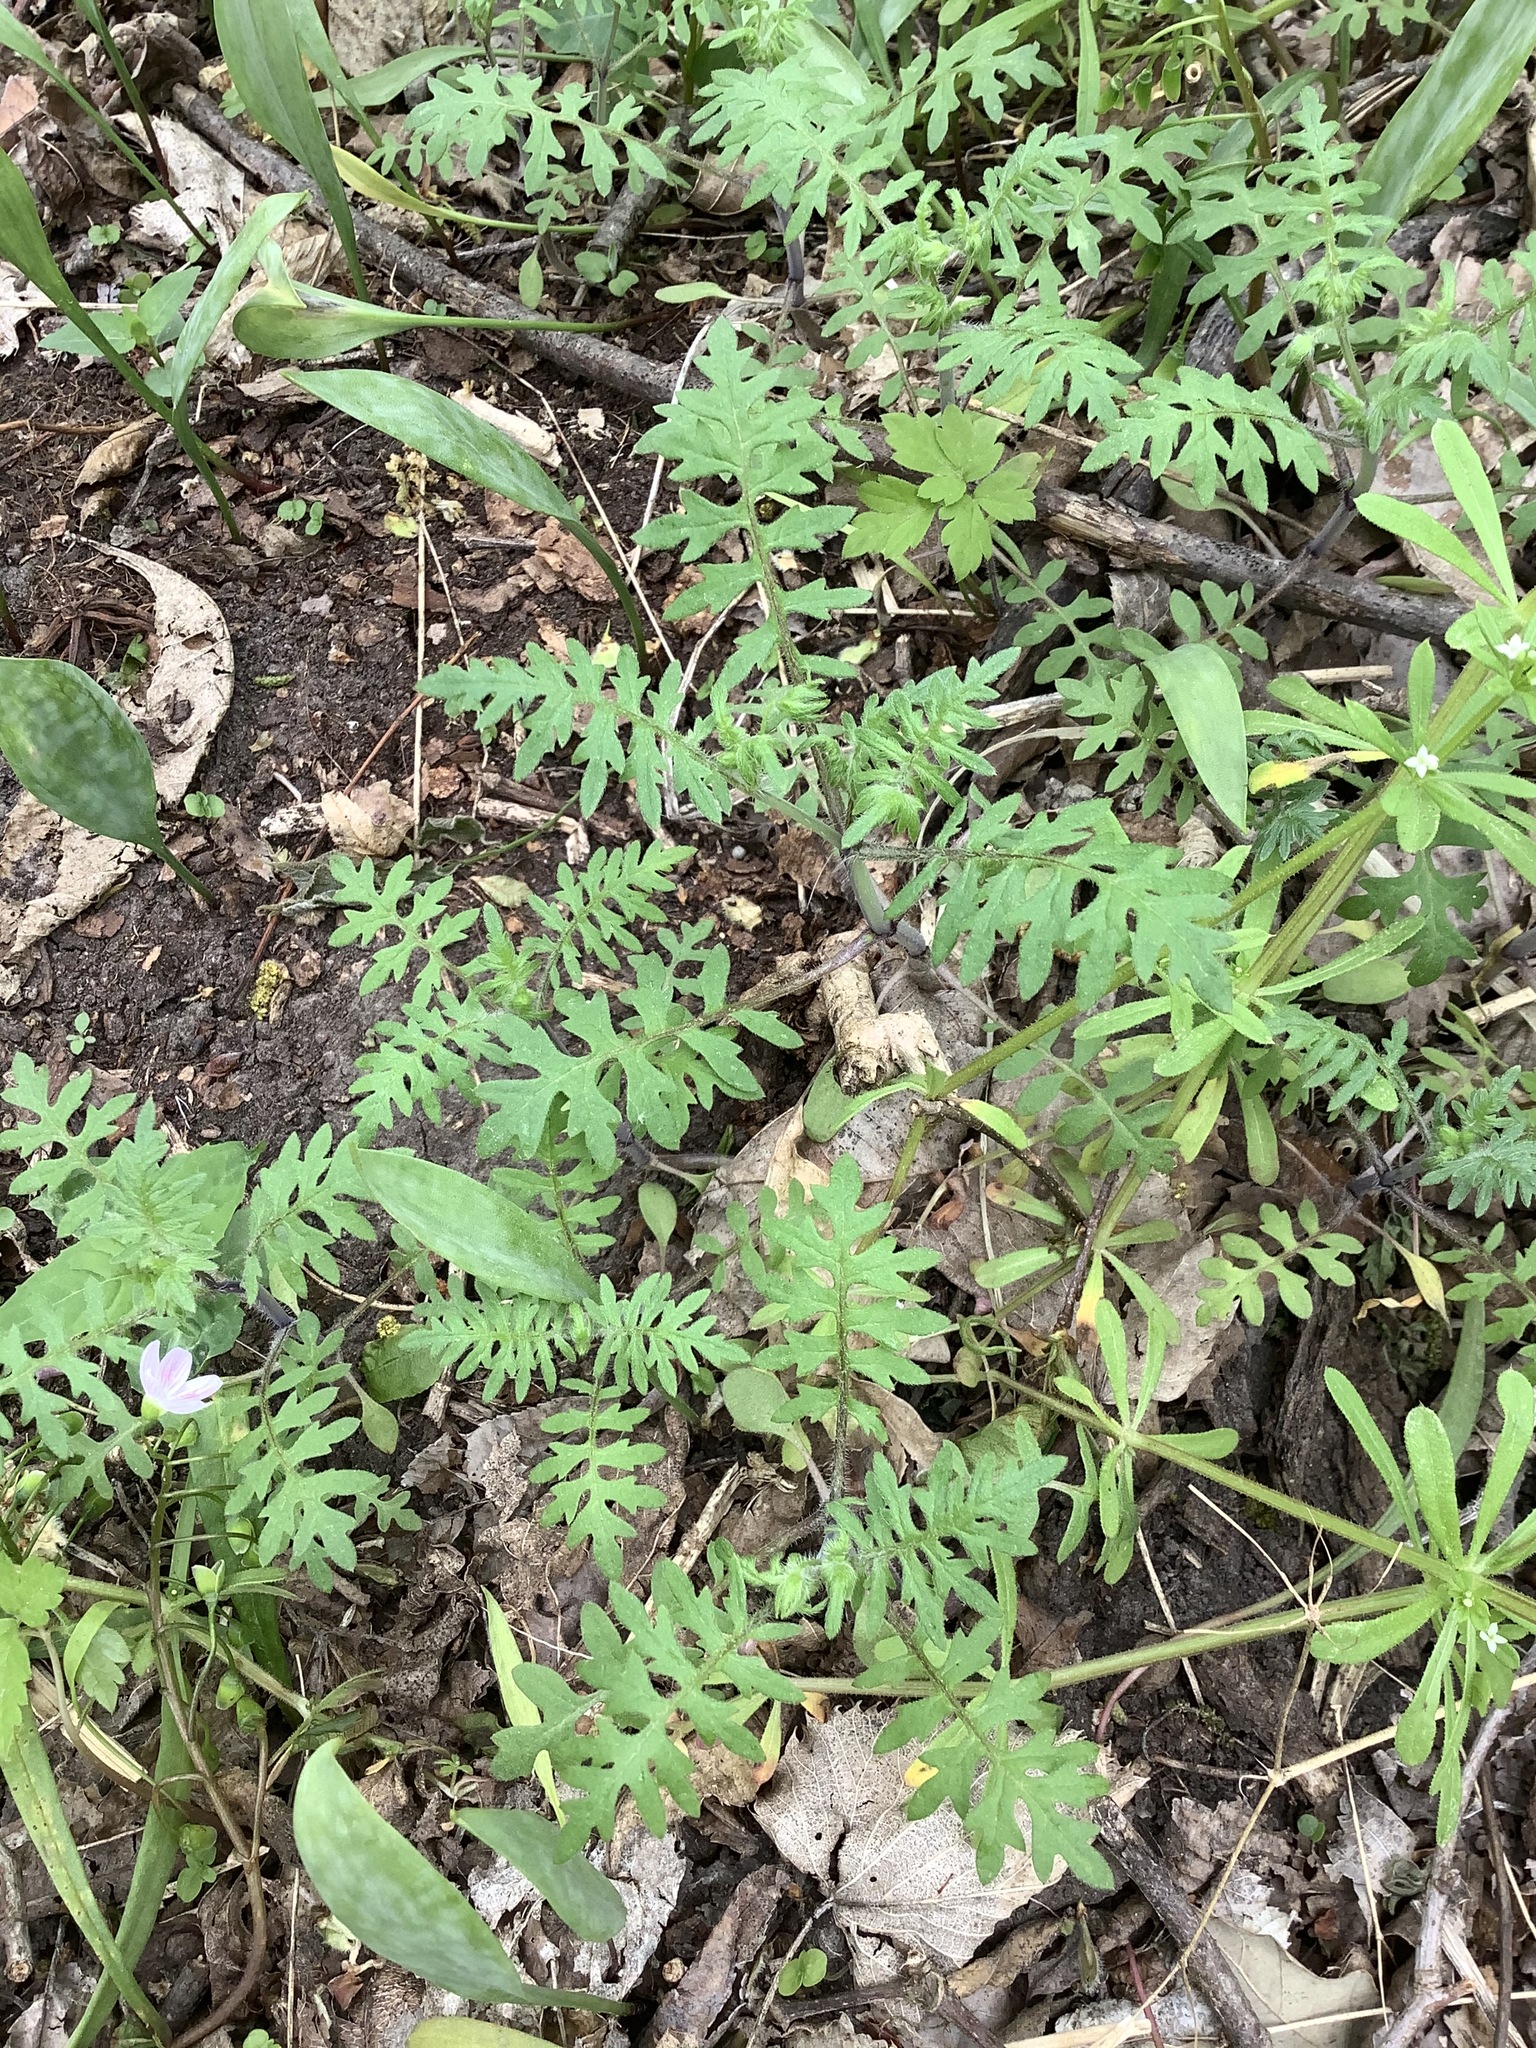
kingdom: Plantae
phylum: Tracheophyta
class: Magnoliopsida
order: Boraginales
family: Hydrophyllaceae
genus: Ellisia
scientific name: Ellisia nyctelea
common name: Aunt lucy
